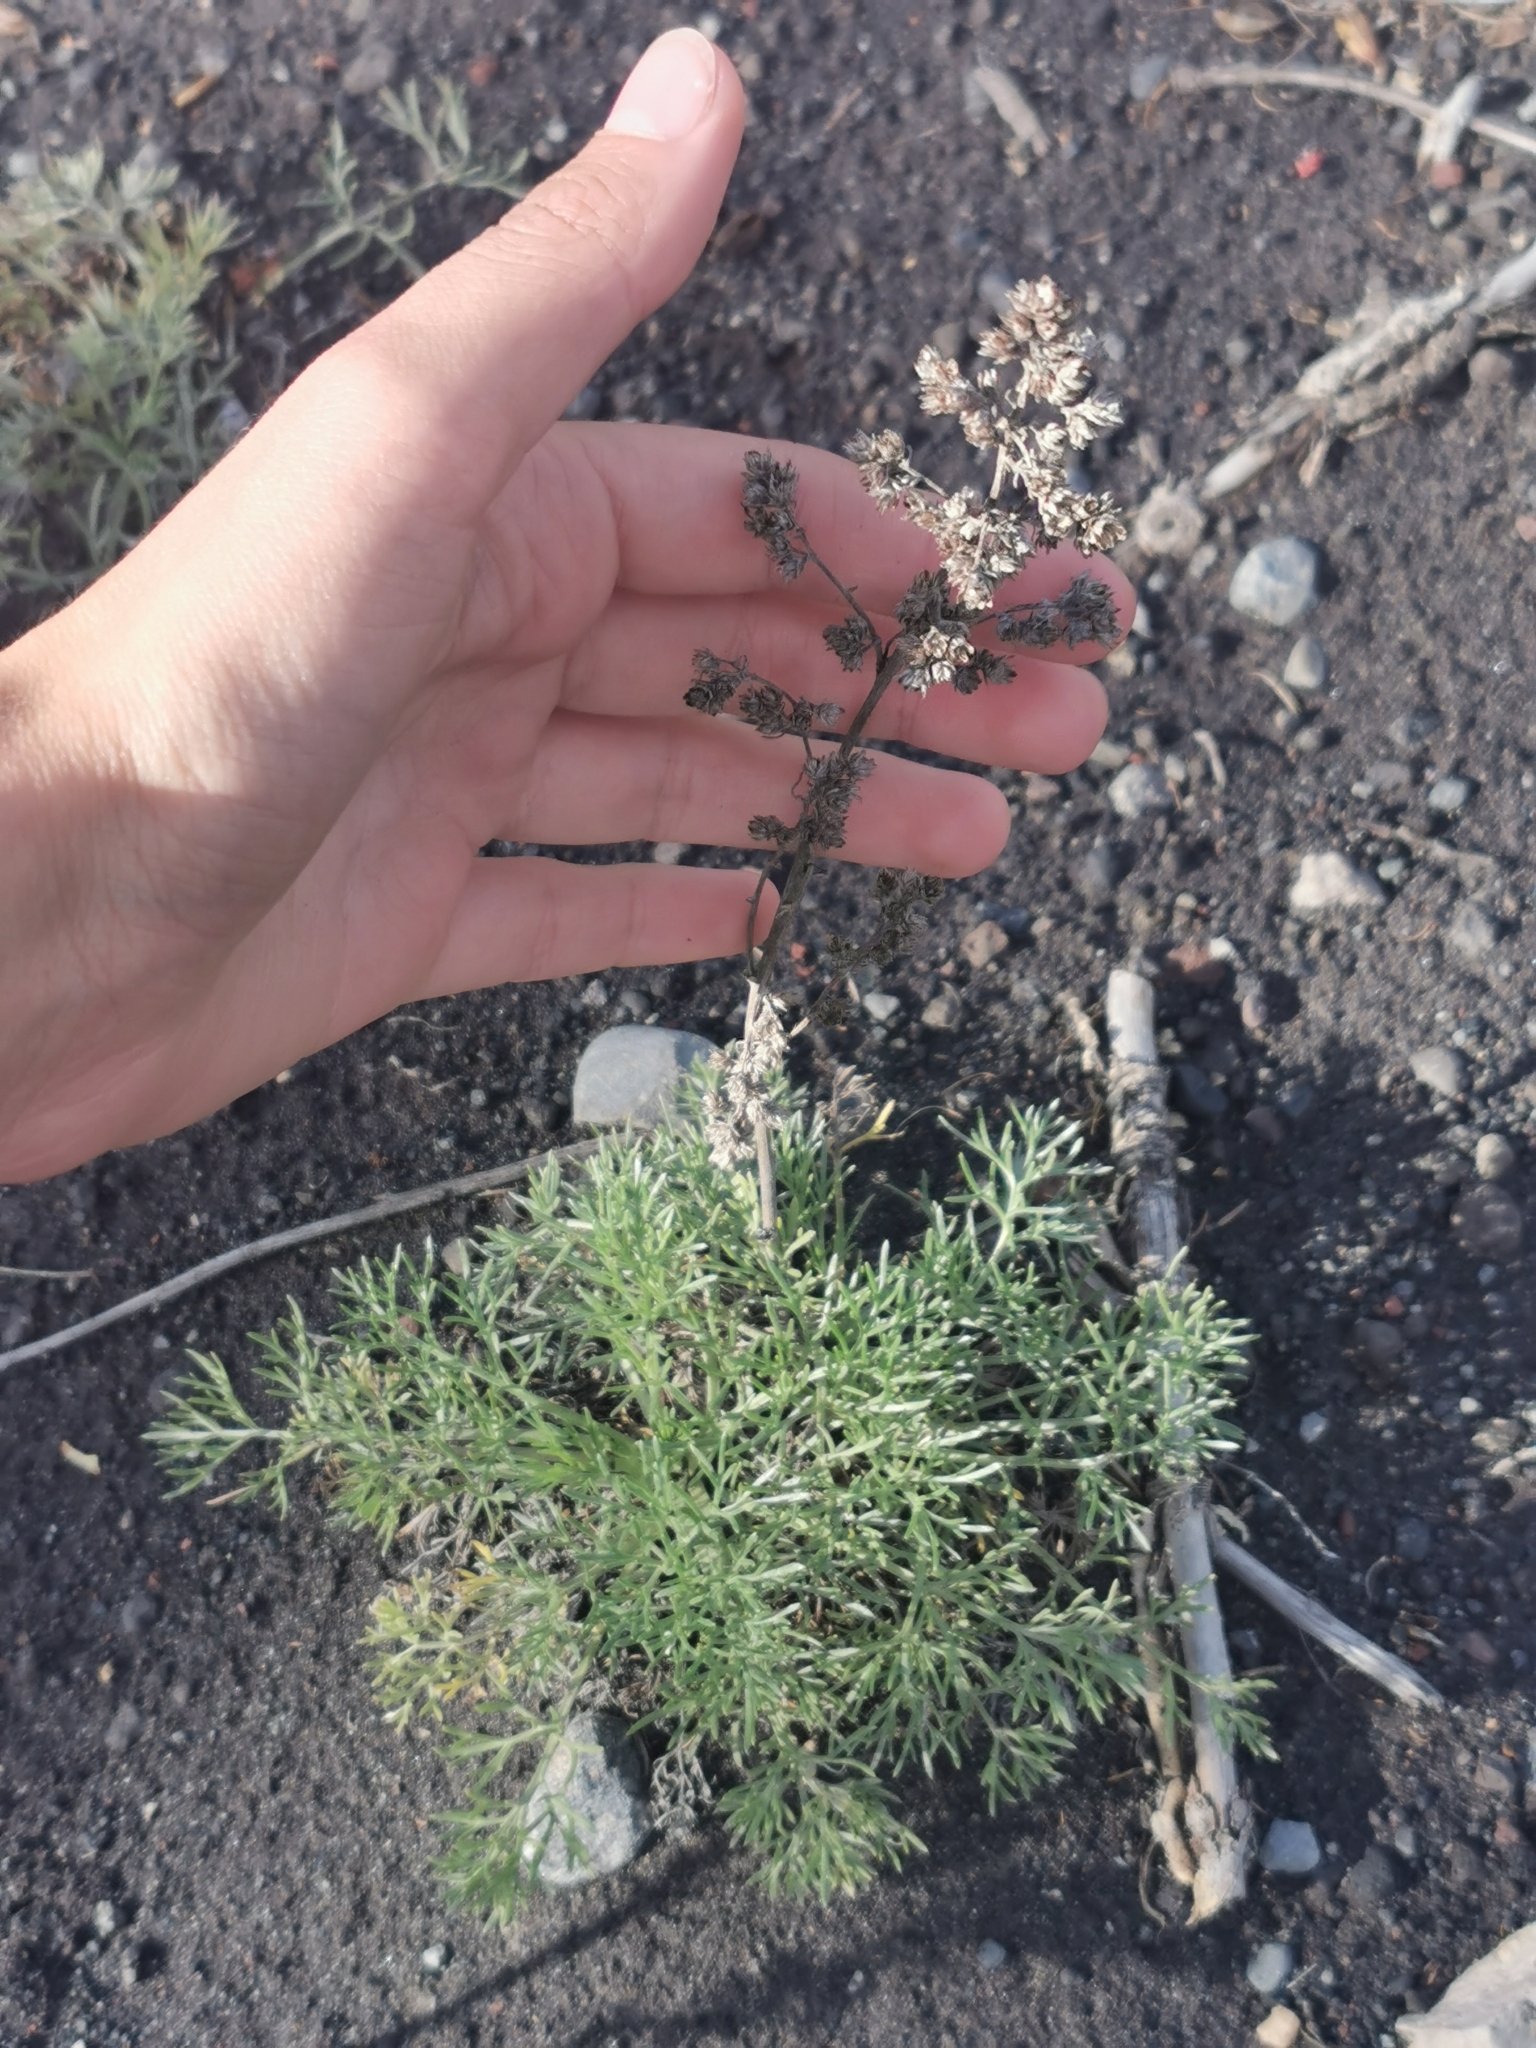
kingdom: Plantae
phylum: Tracheophyta
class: Magnoliopsida
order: Asterales
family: Asteraceae
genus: Artemisia
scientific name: Artemisia borealis
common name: Boreal sage
